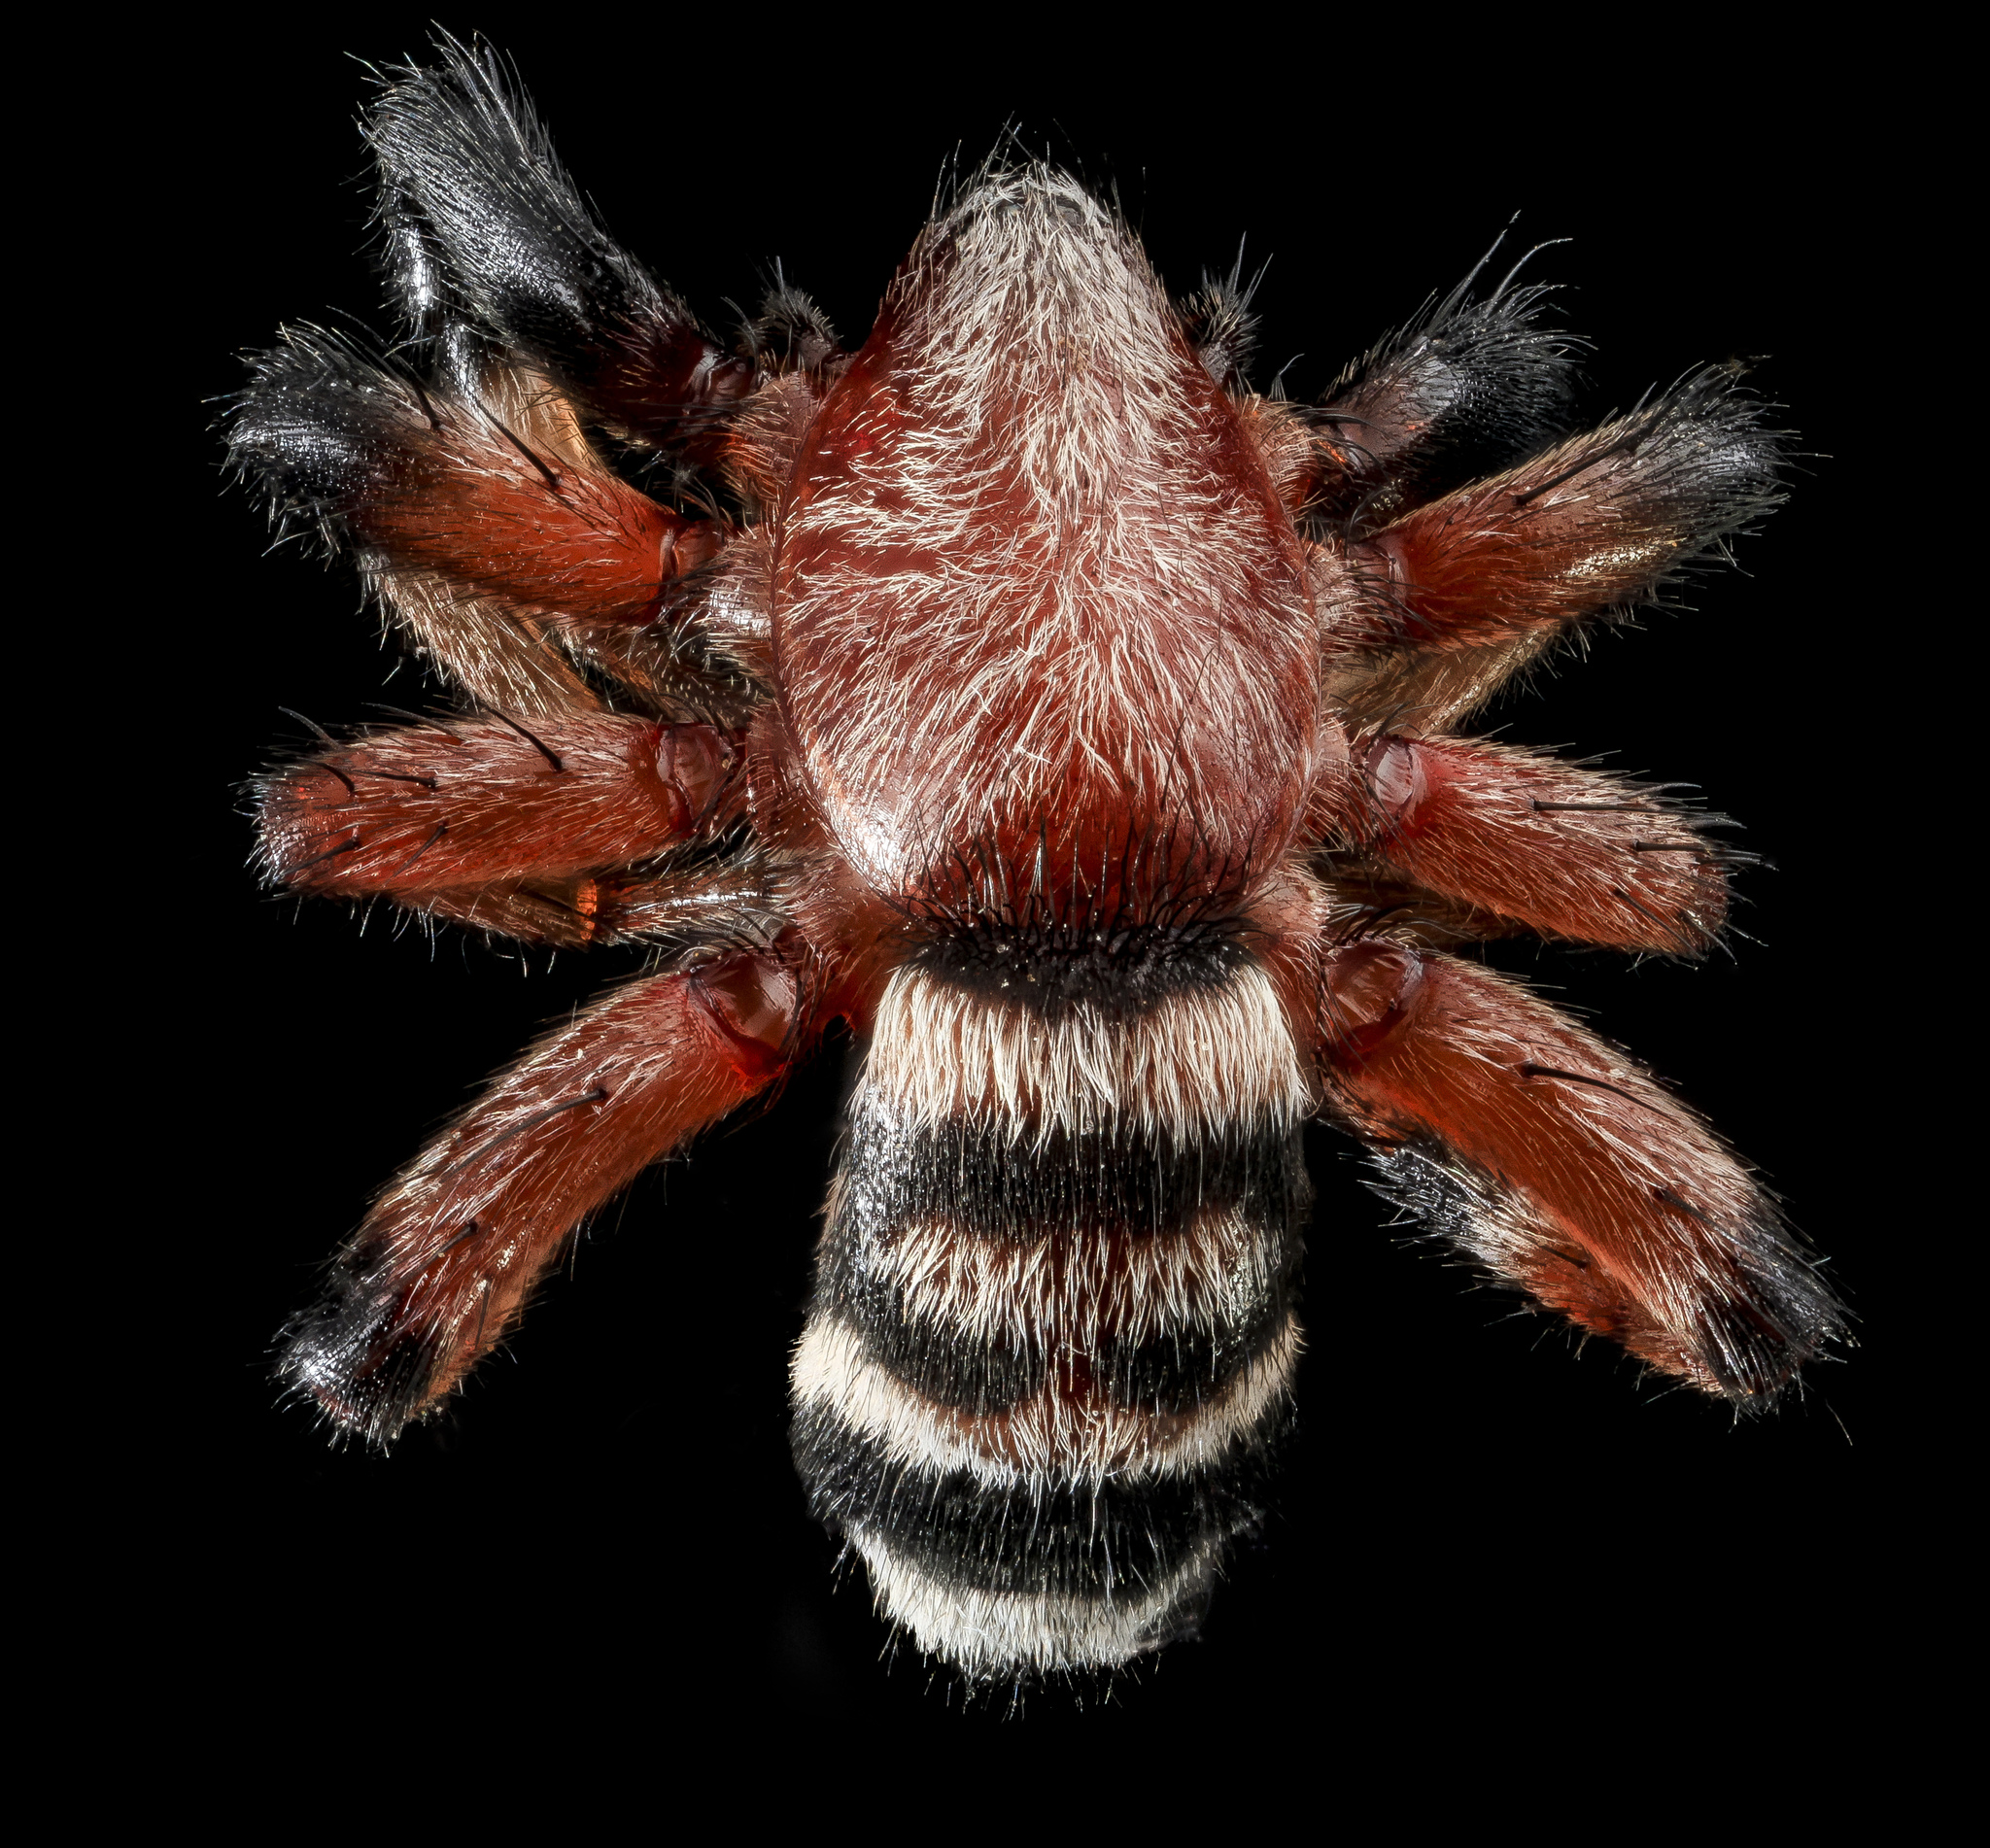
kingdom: Animalia
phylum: Arthropoda
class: Arachnida
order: Araneae
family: Gnaphosidae
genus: Sergiolus
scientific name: Sergiolus capulatus
